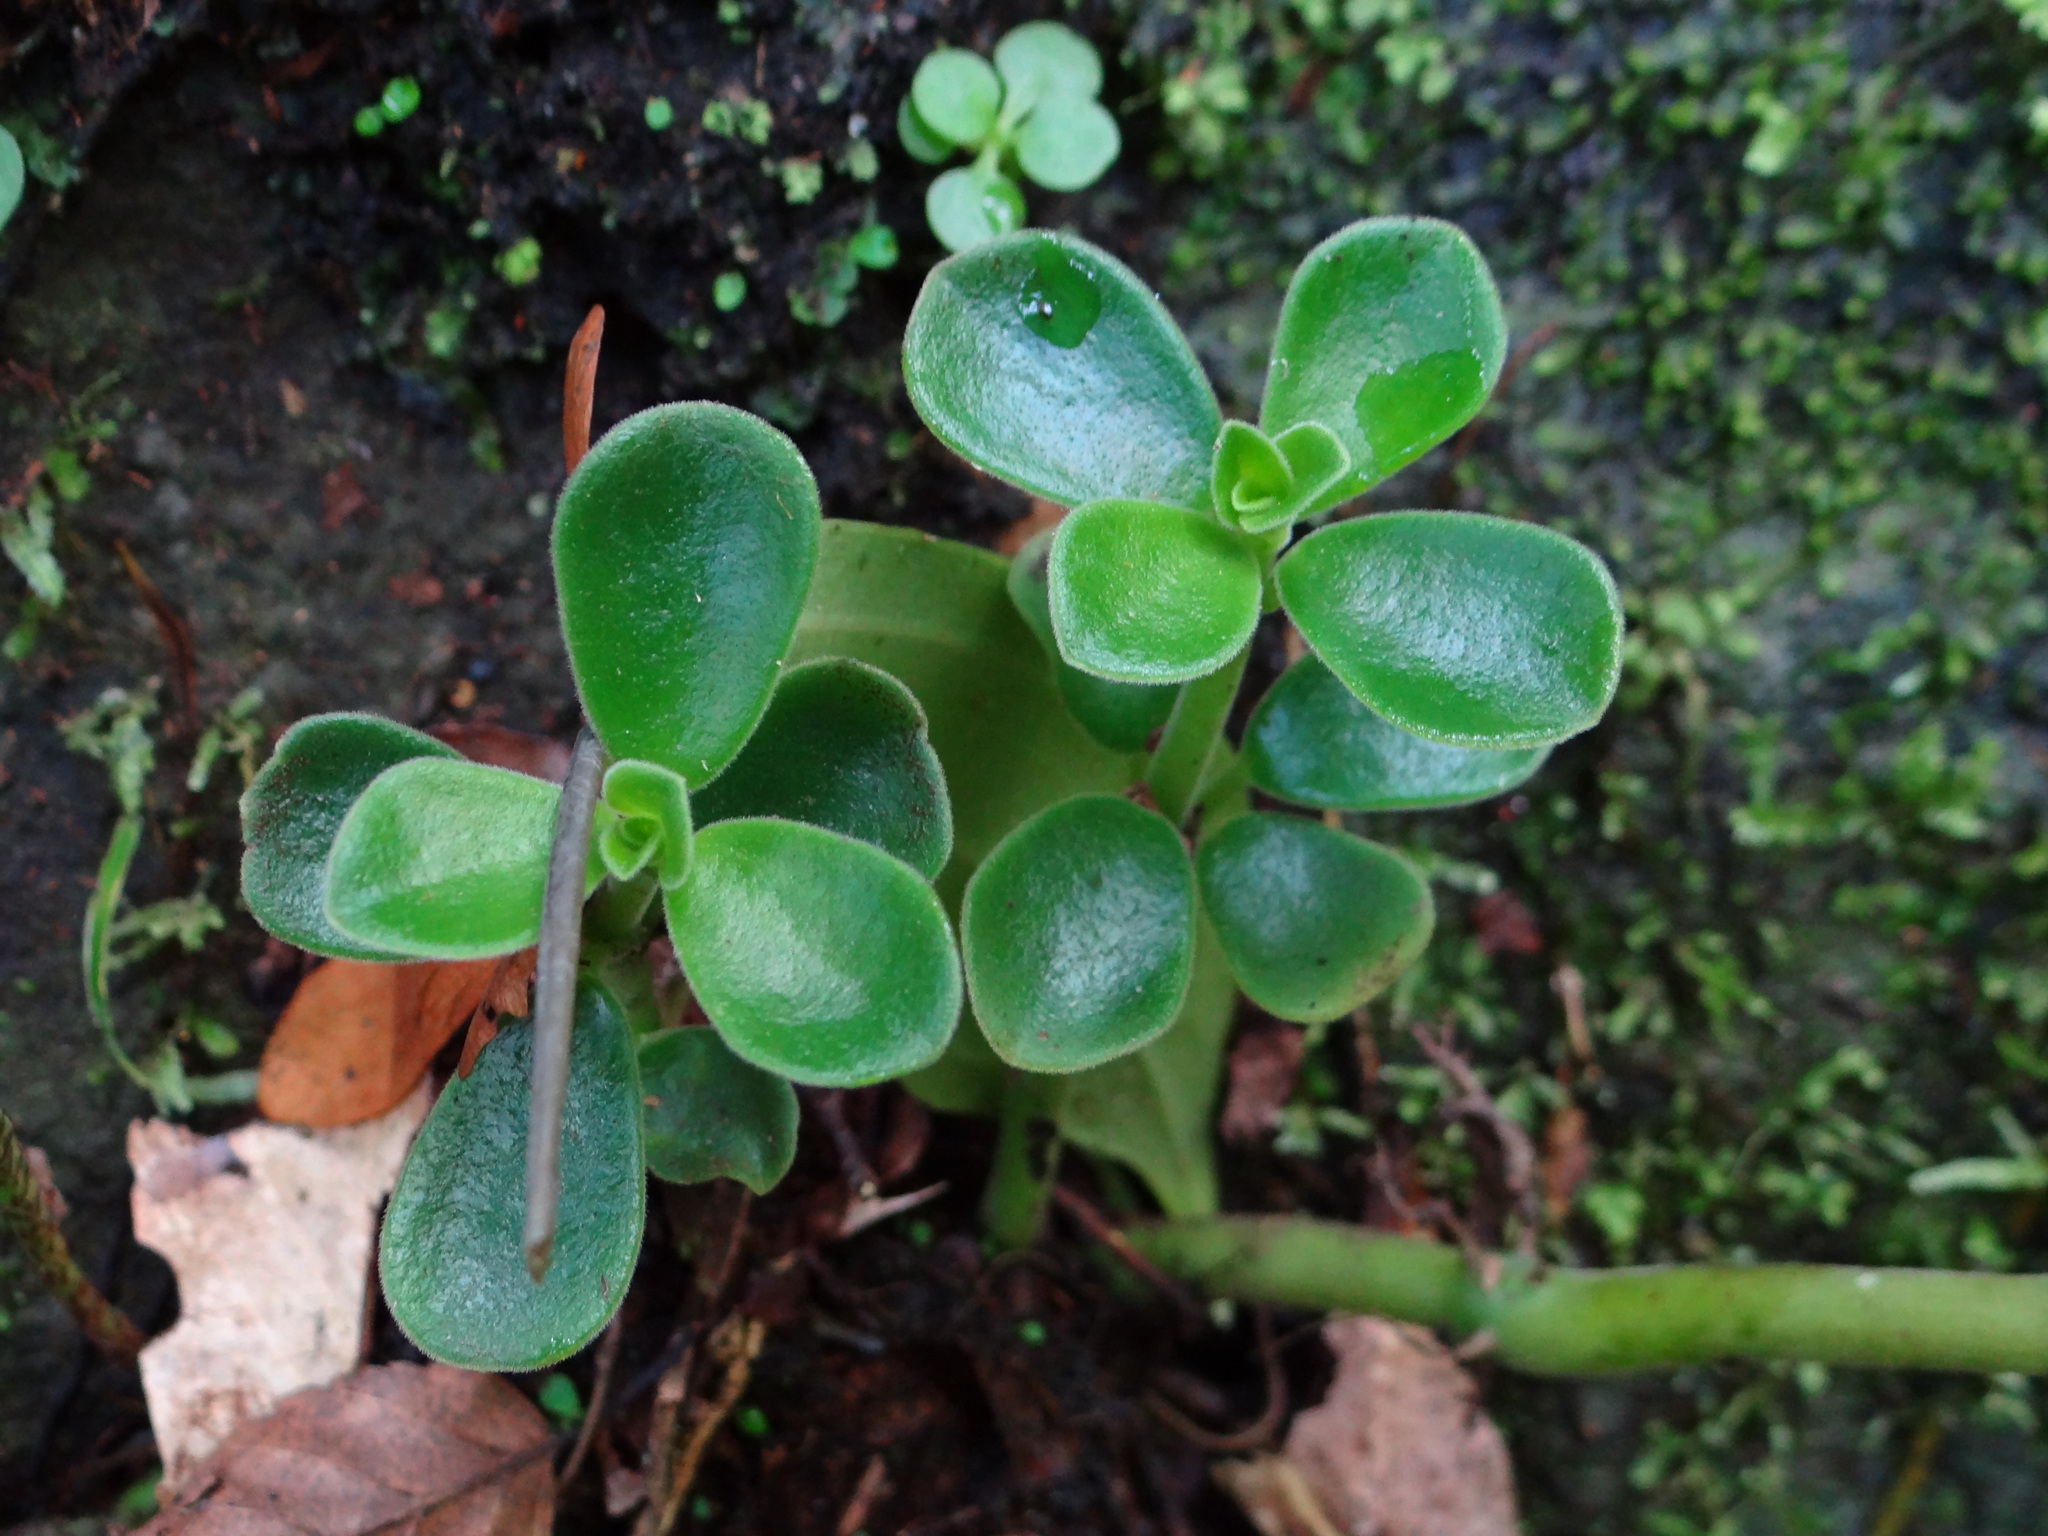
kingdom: Plantae
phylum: Tracheophyta
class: Magnoliopsida
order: Piperales
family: Piperaceae
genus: Peperomia
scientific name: Peperomia japonica
